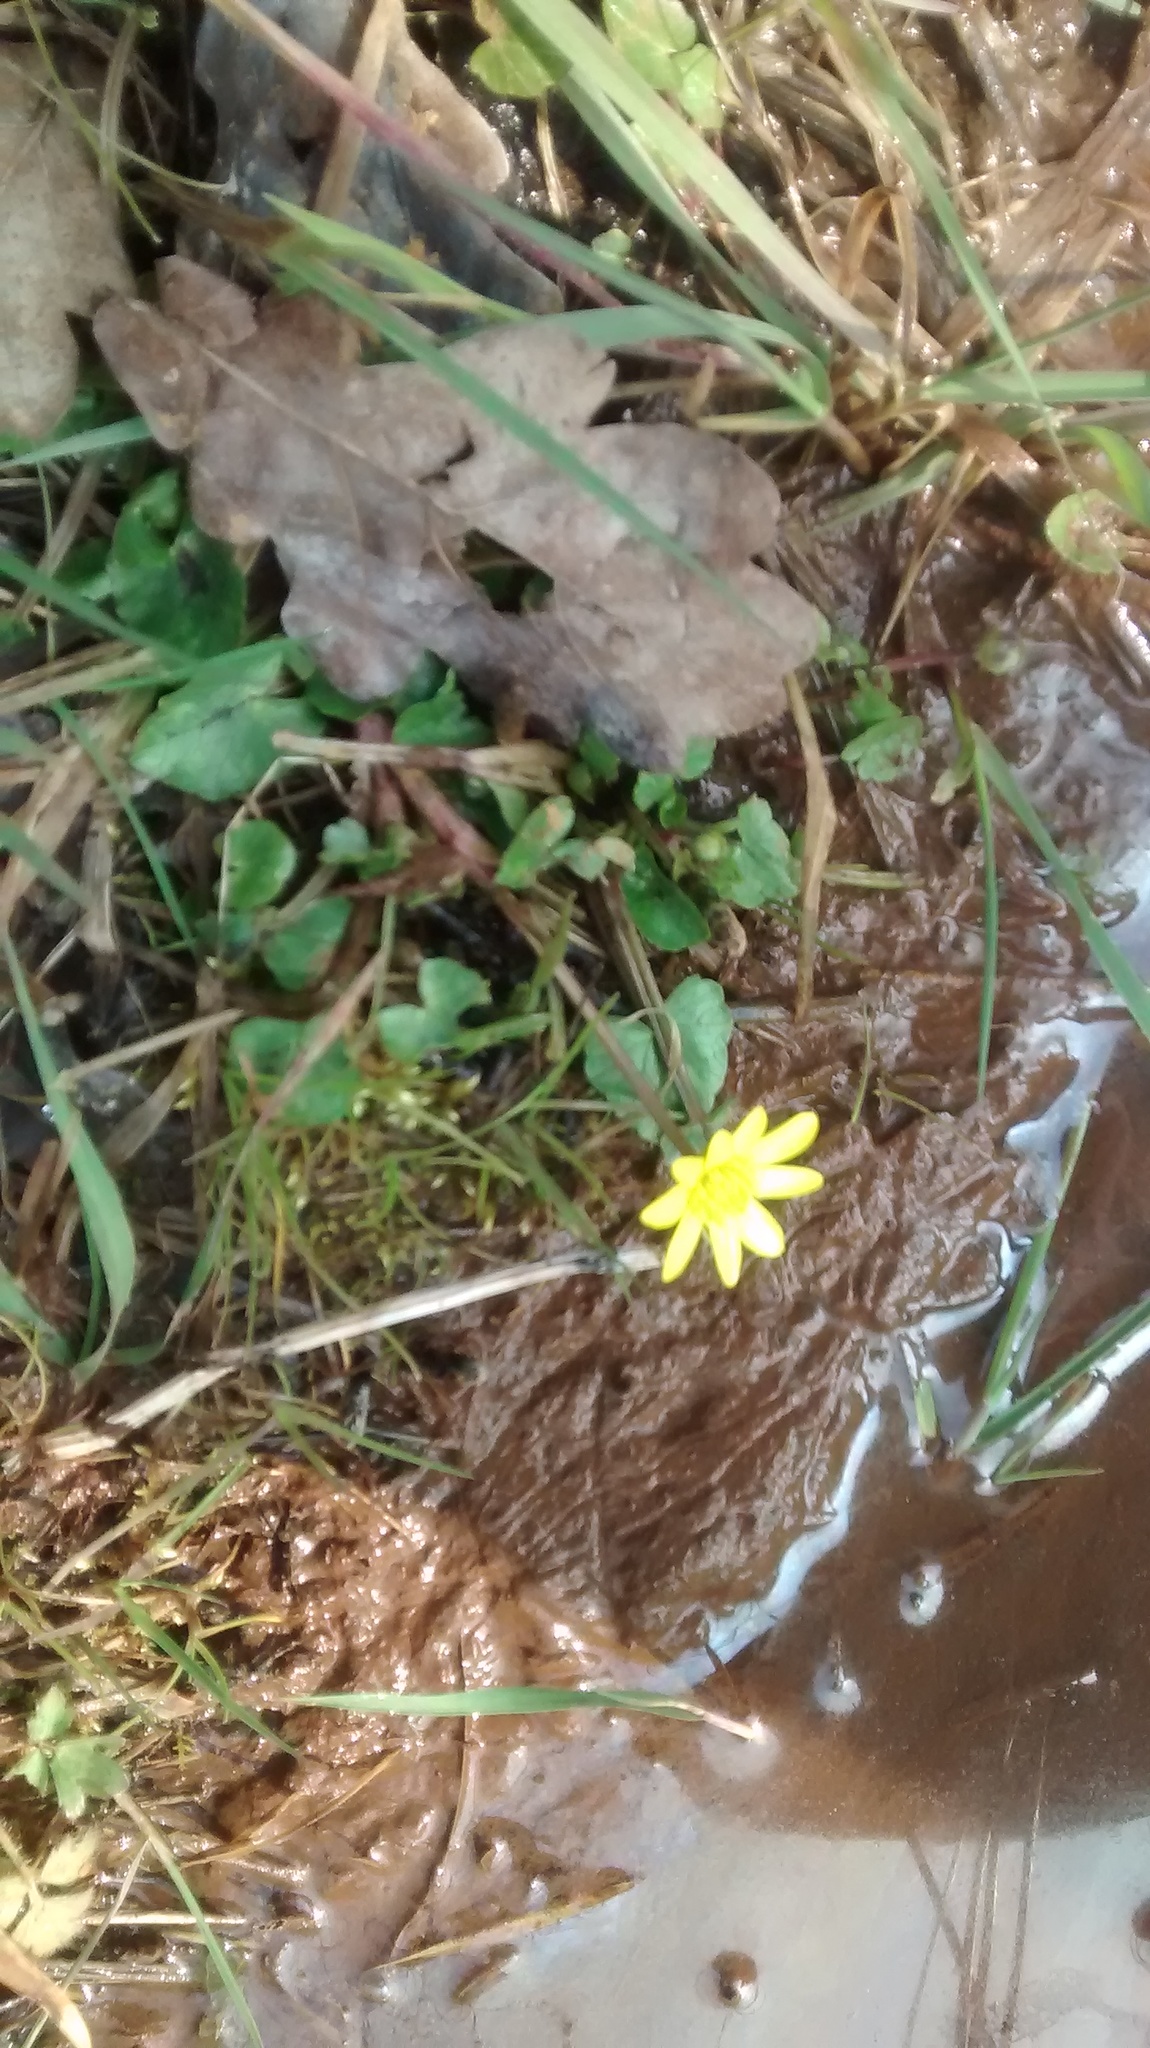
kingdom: Plantae
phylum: Tracheophyta
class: Magnoliopsida
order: Ranunculales
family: Ranunculaceae
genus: Ficaria
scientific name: Ficaria verna
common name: Lesser celandine
